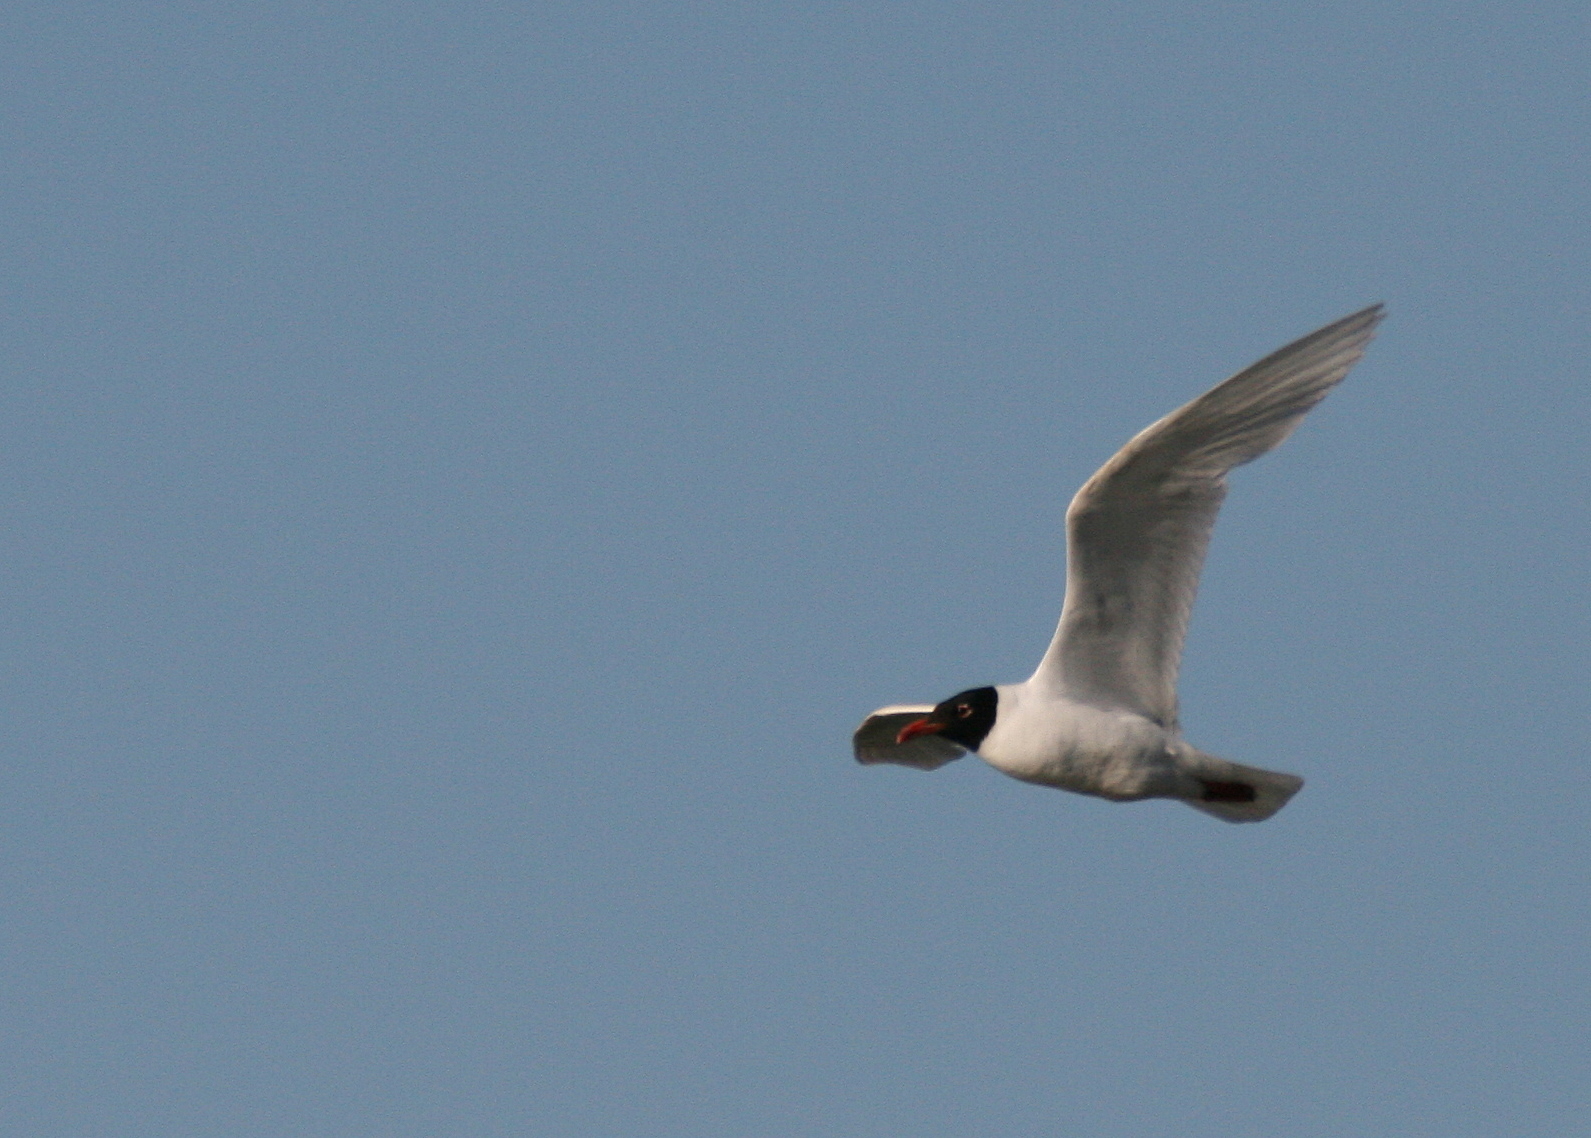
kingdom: Animalia
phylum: Chordata
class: Aves
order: Charadriiformes
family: Laridae
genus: Ichthyaetus
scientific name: Ichthyaetus melanocephalus
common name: Mediterranean gull
